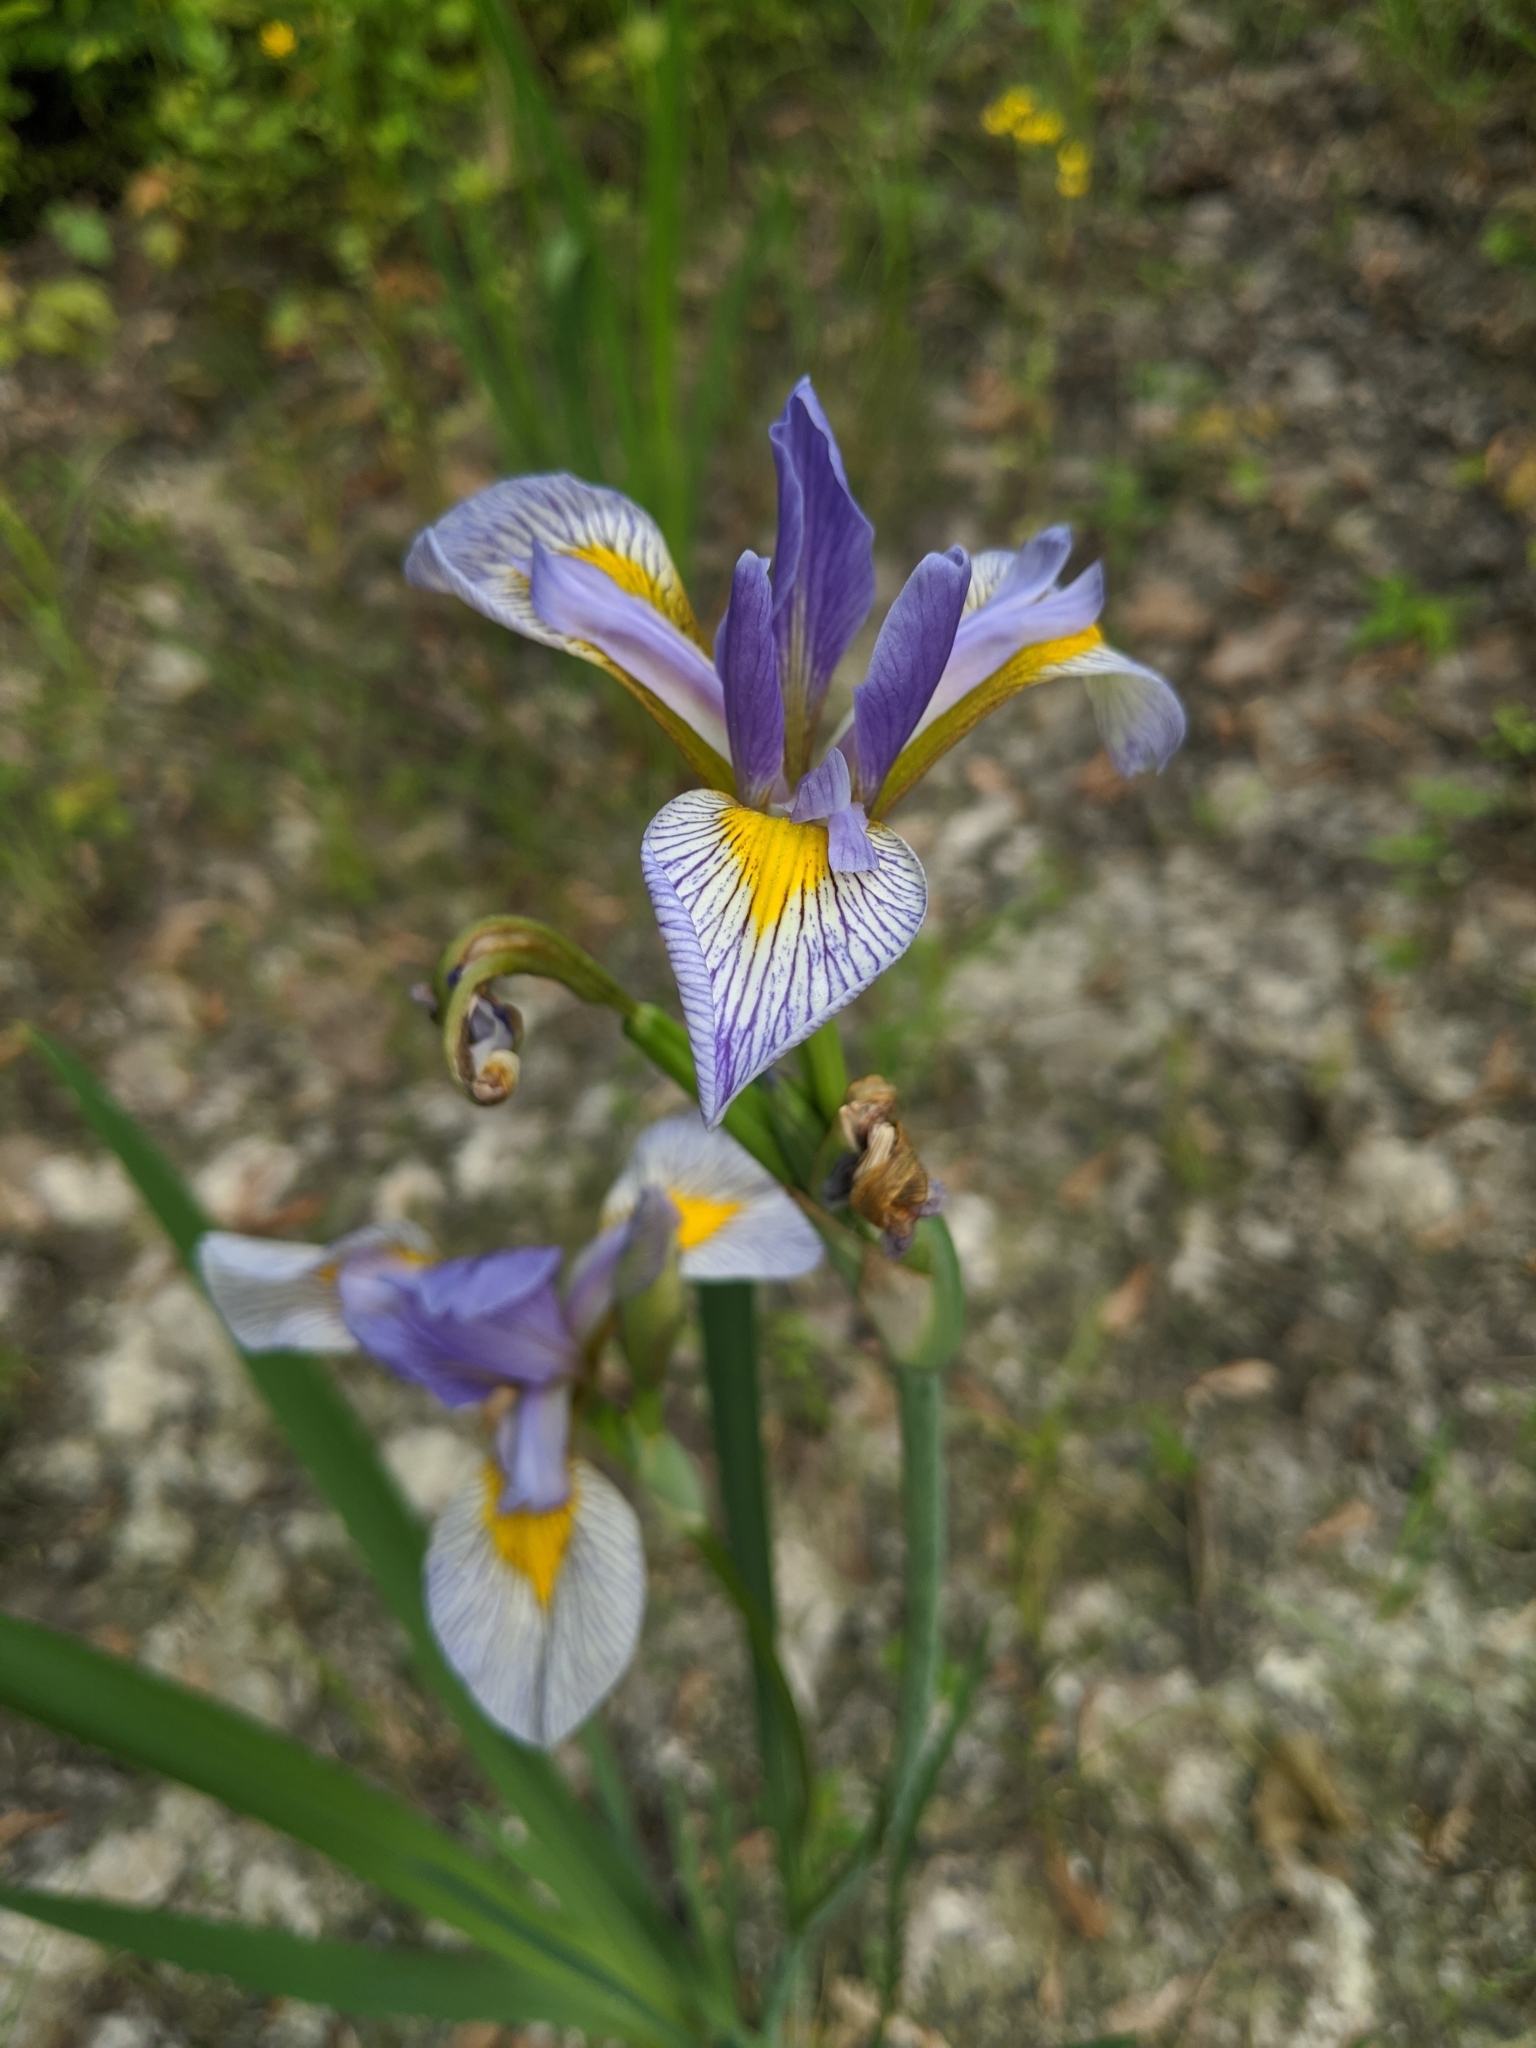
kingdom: Plantae
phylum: Tracheophyta
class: Liliopsida
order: Asparagales
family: Iridaceae
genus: Iris
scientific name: Iris virginica
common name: Southern blue flag
